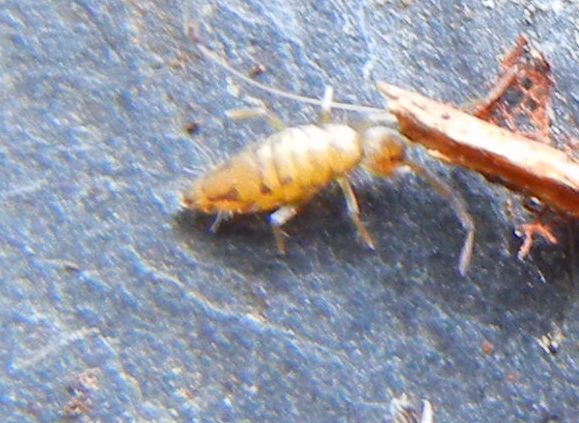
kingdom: Animalia
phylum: Arthropoda
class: Collembola
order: Entomobryomorpha
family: Entomobryidae
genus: Entomobrya
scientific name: Entomobrya nivalis
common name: Cosmopolitan springtail
